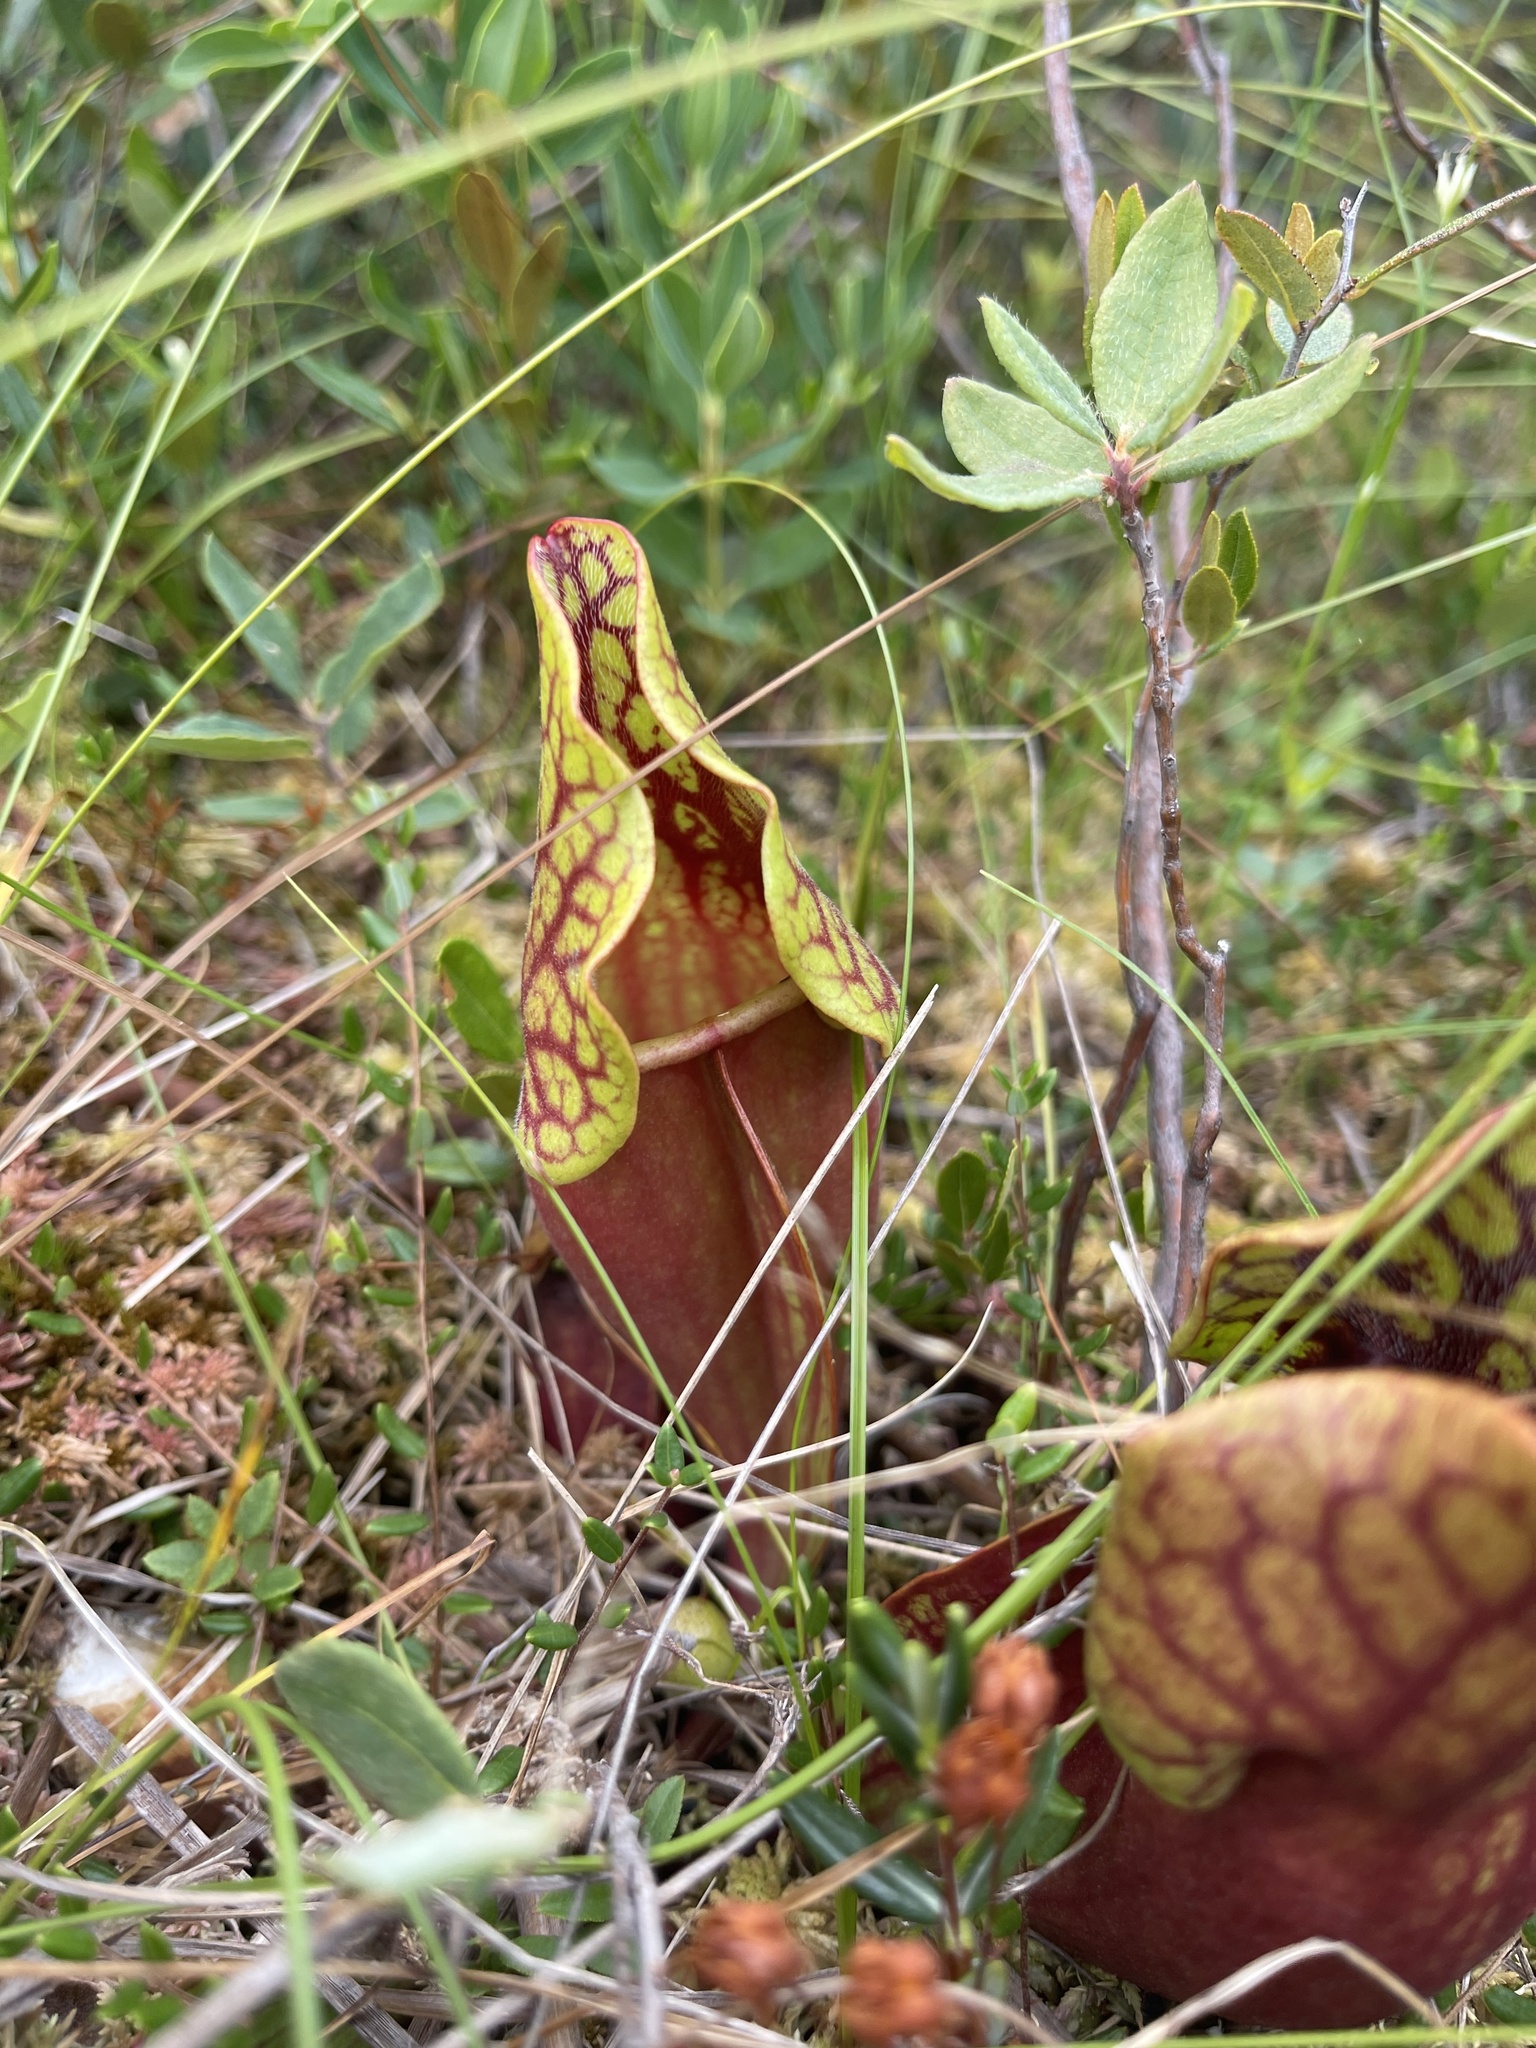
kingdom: Plantae
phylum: Tracheophyta
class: Magnoliopsida
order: Ericales
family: Sarraceniaceae
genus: Sarracenia
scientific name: Sarracenia purpurea
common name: Pitcherplant
